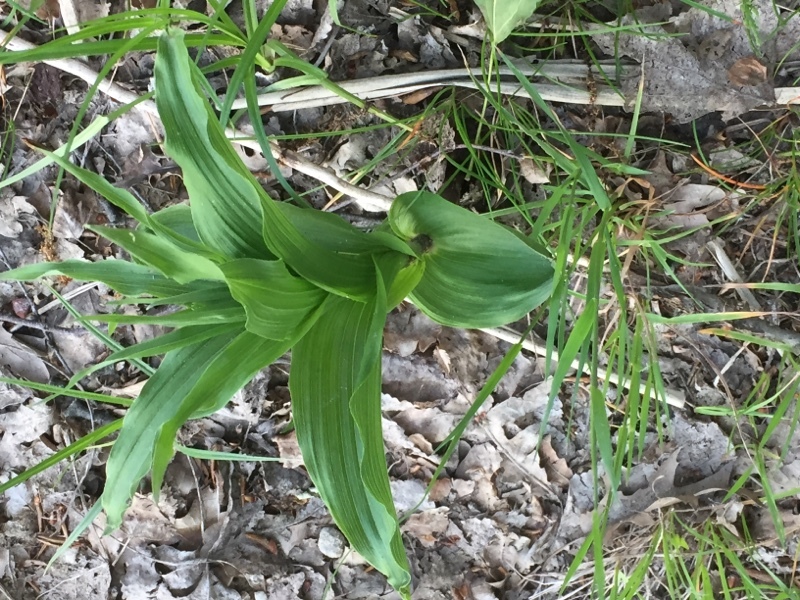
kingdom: Plantae
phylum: Tracheophyta
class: Liliopsida
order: Asparagales
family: Orchidaceae
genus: Epipactis
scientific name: Epipactis helleborine
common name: Broad-leaved helleborine
